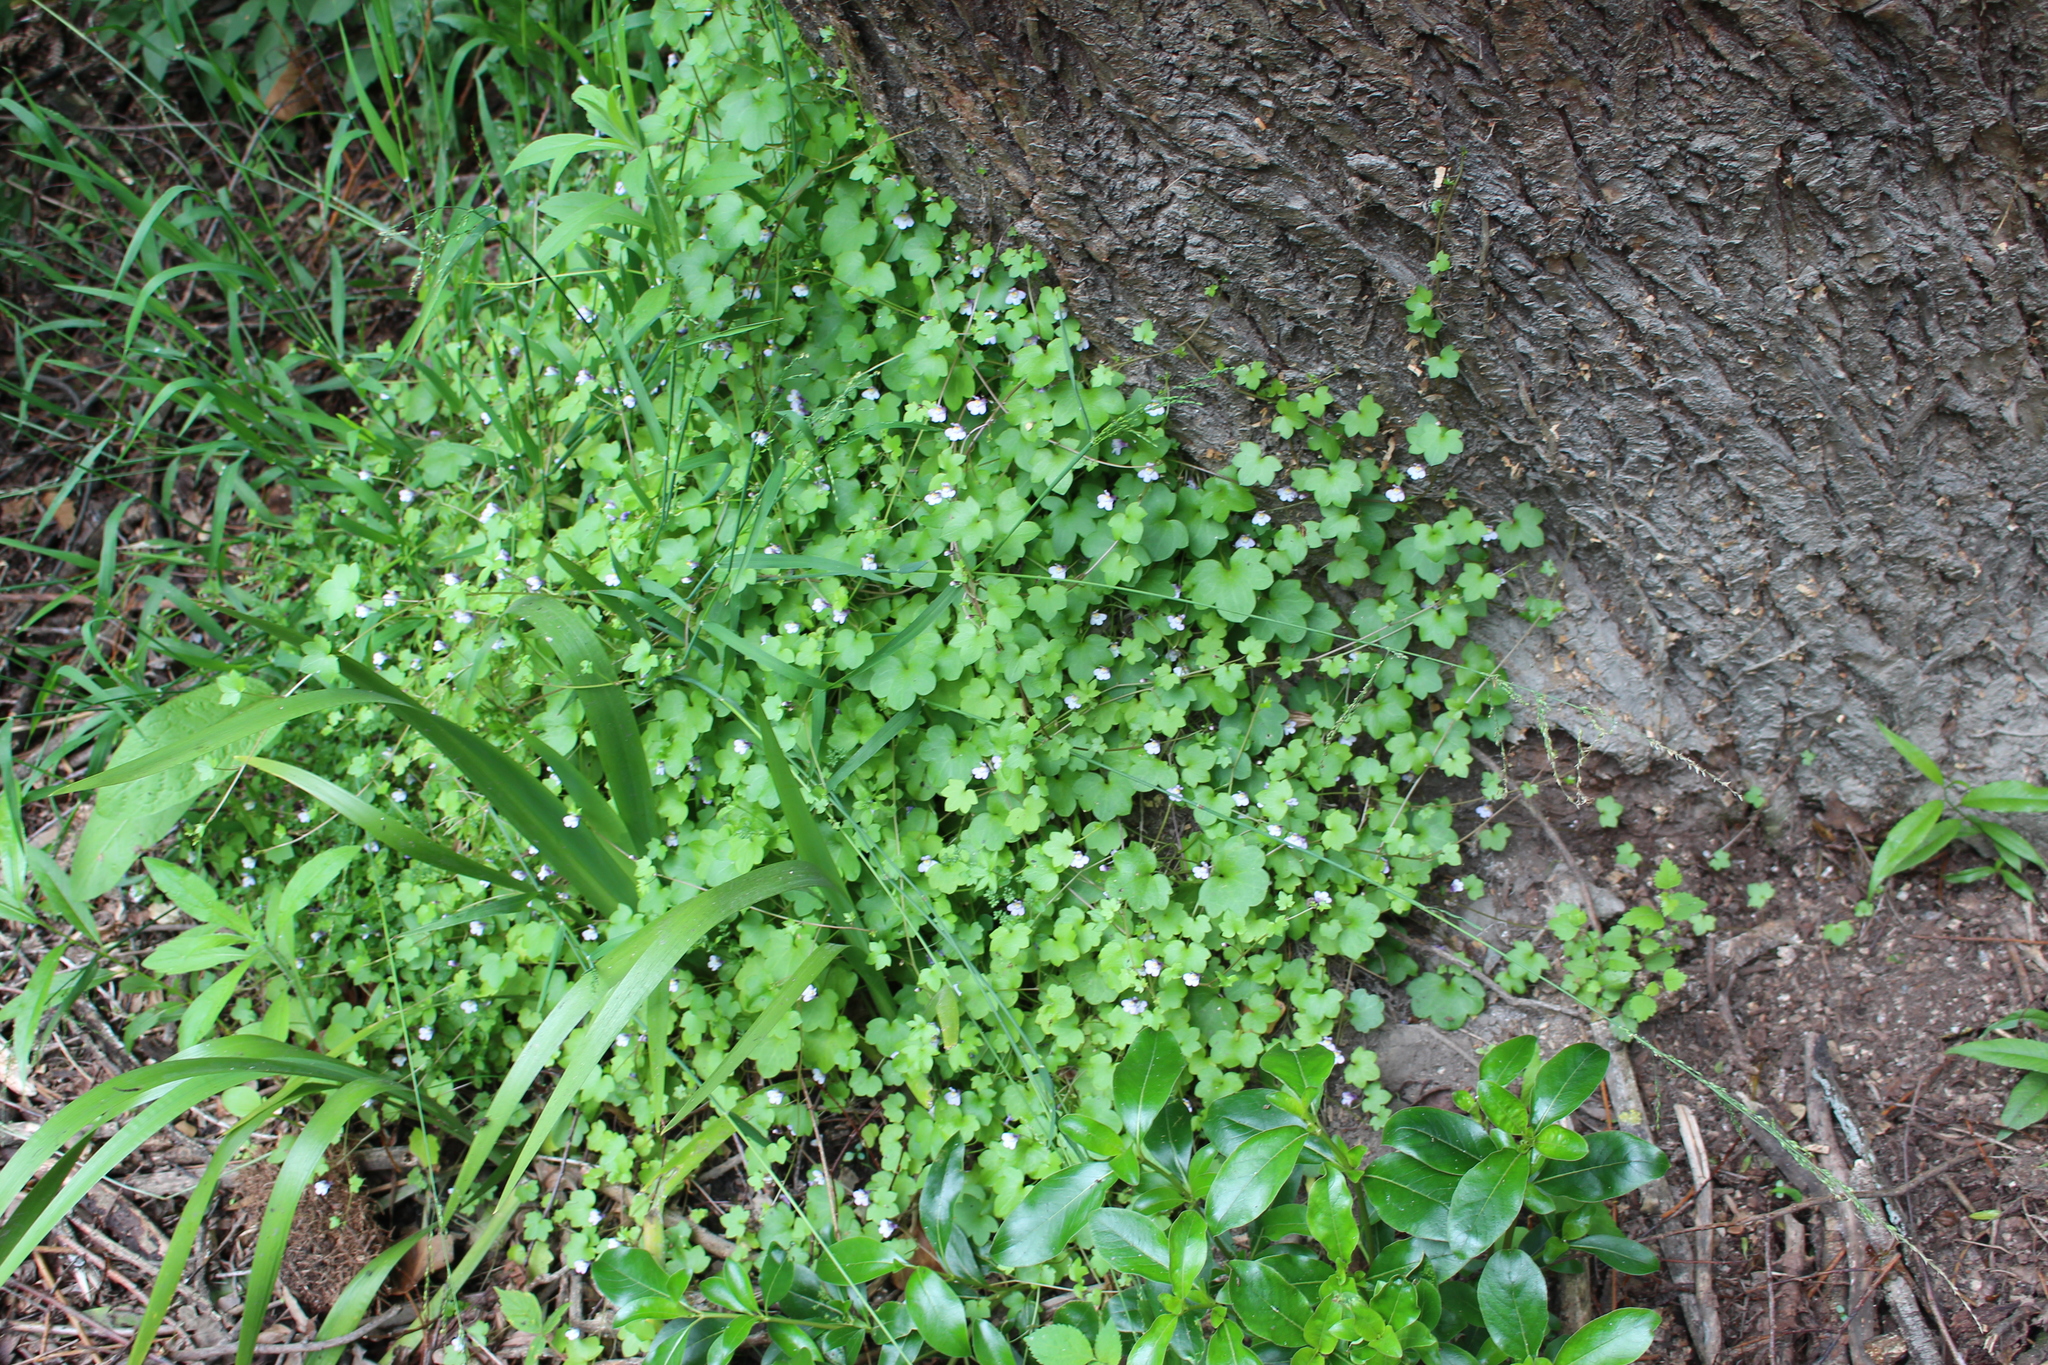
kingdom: Plantae
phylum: Tracheophyta
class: Magnoliopsida
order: Lamiales
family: Plantaginaceae
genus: Cymbalaria
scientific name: Cymbalaria muralis
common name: Ivy-leaved toadflax
